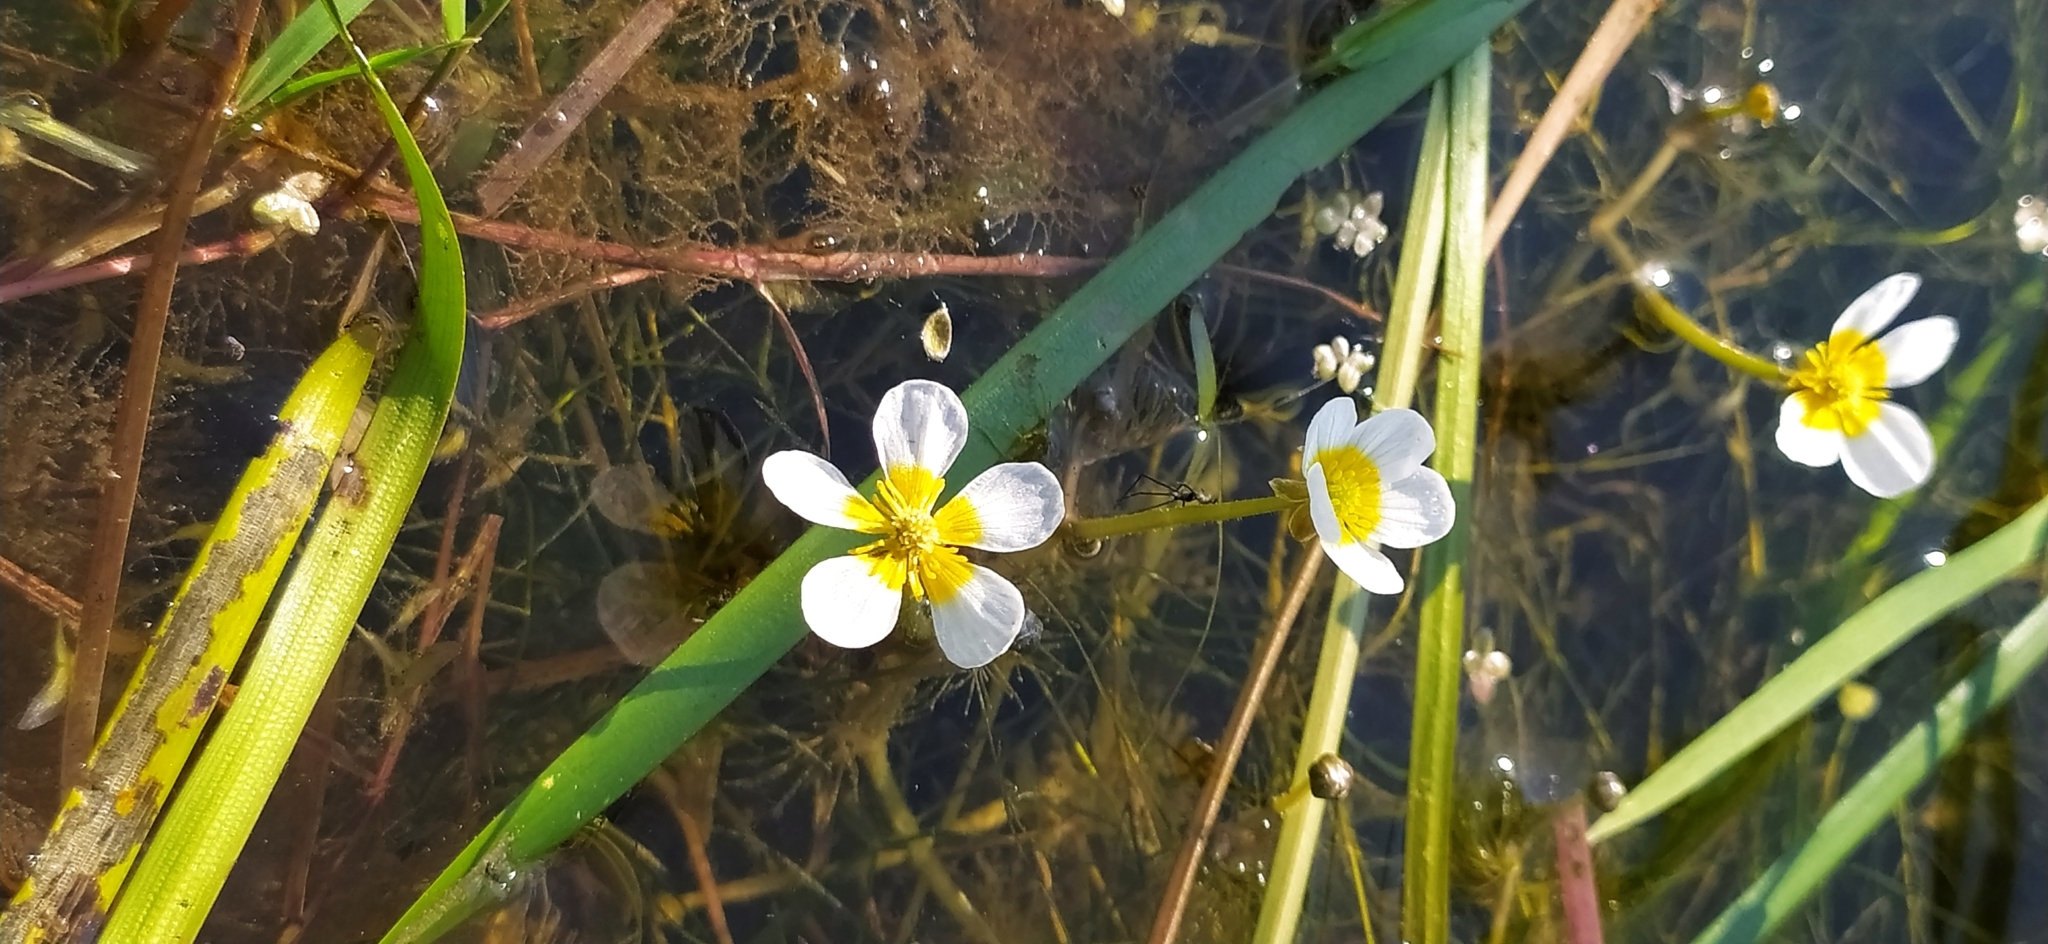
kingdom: Plantae
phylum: Tracheophyta
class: Magnoliopsida
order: Ranunculales
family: Ranunculaceae
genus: Ranunculus
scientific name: Ranunculus circinatus
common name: Fan-leaved water-crowfoot
